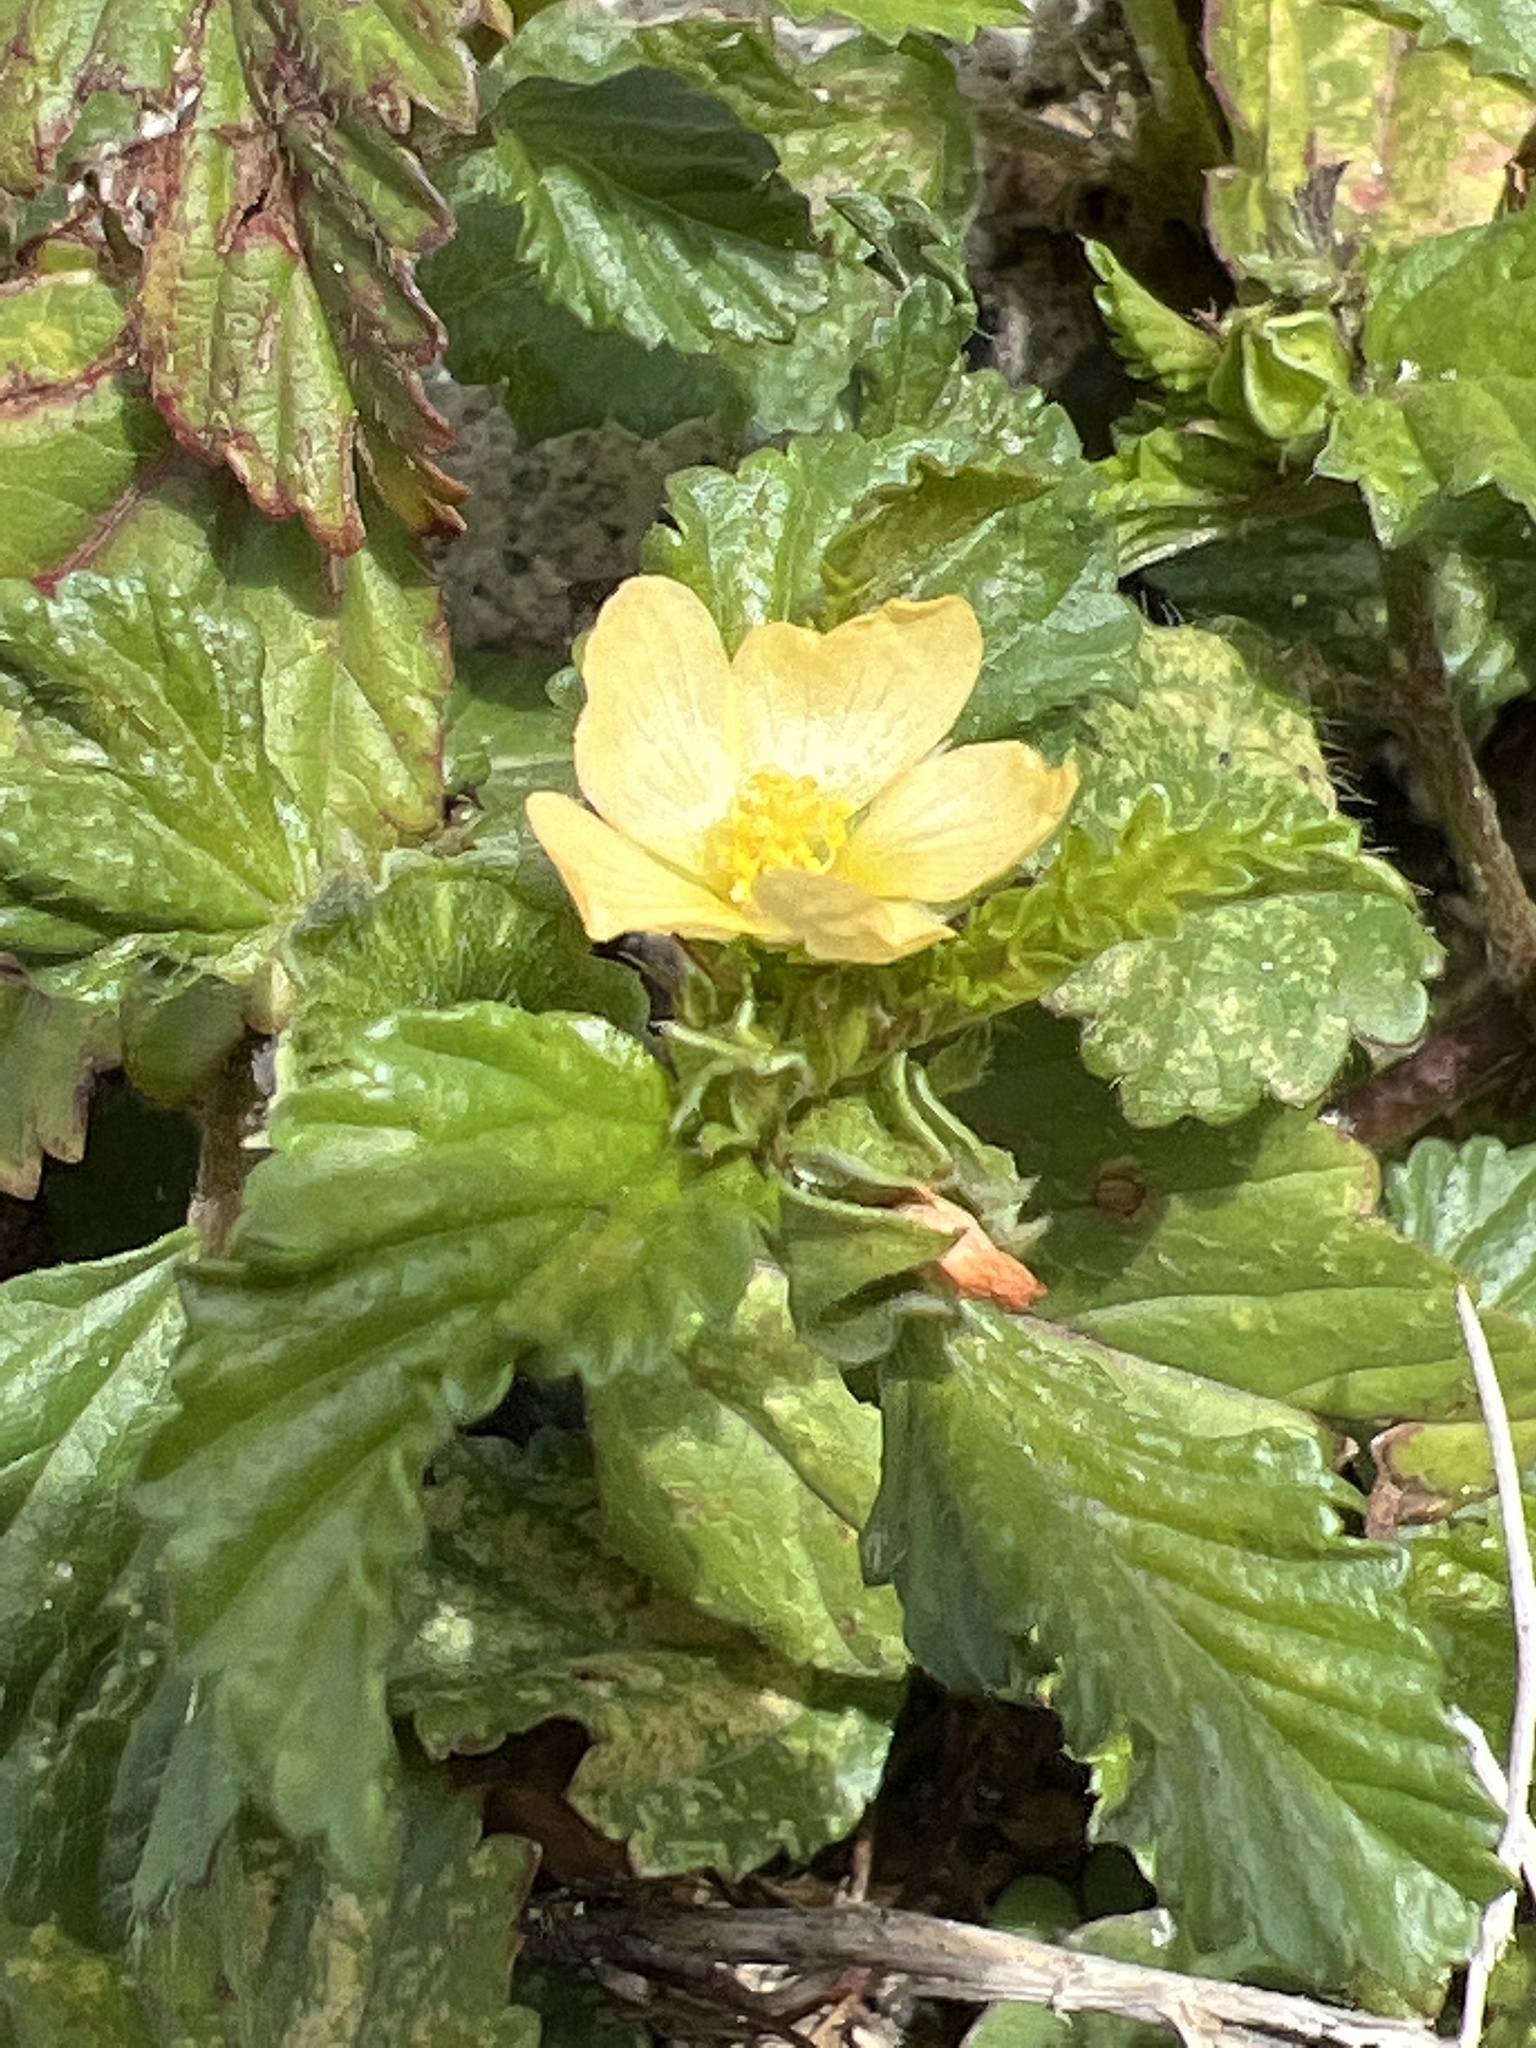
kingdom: Plantae
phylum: Tracheophyta
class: Magnoliopsida
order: Malvales
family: Malvaceae
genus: Malvastrum
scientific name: Malvastrum coromandelianum
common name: Threelobe false mallow
